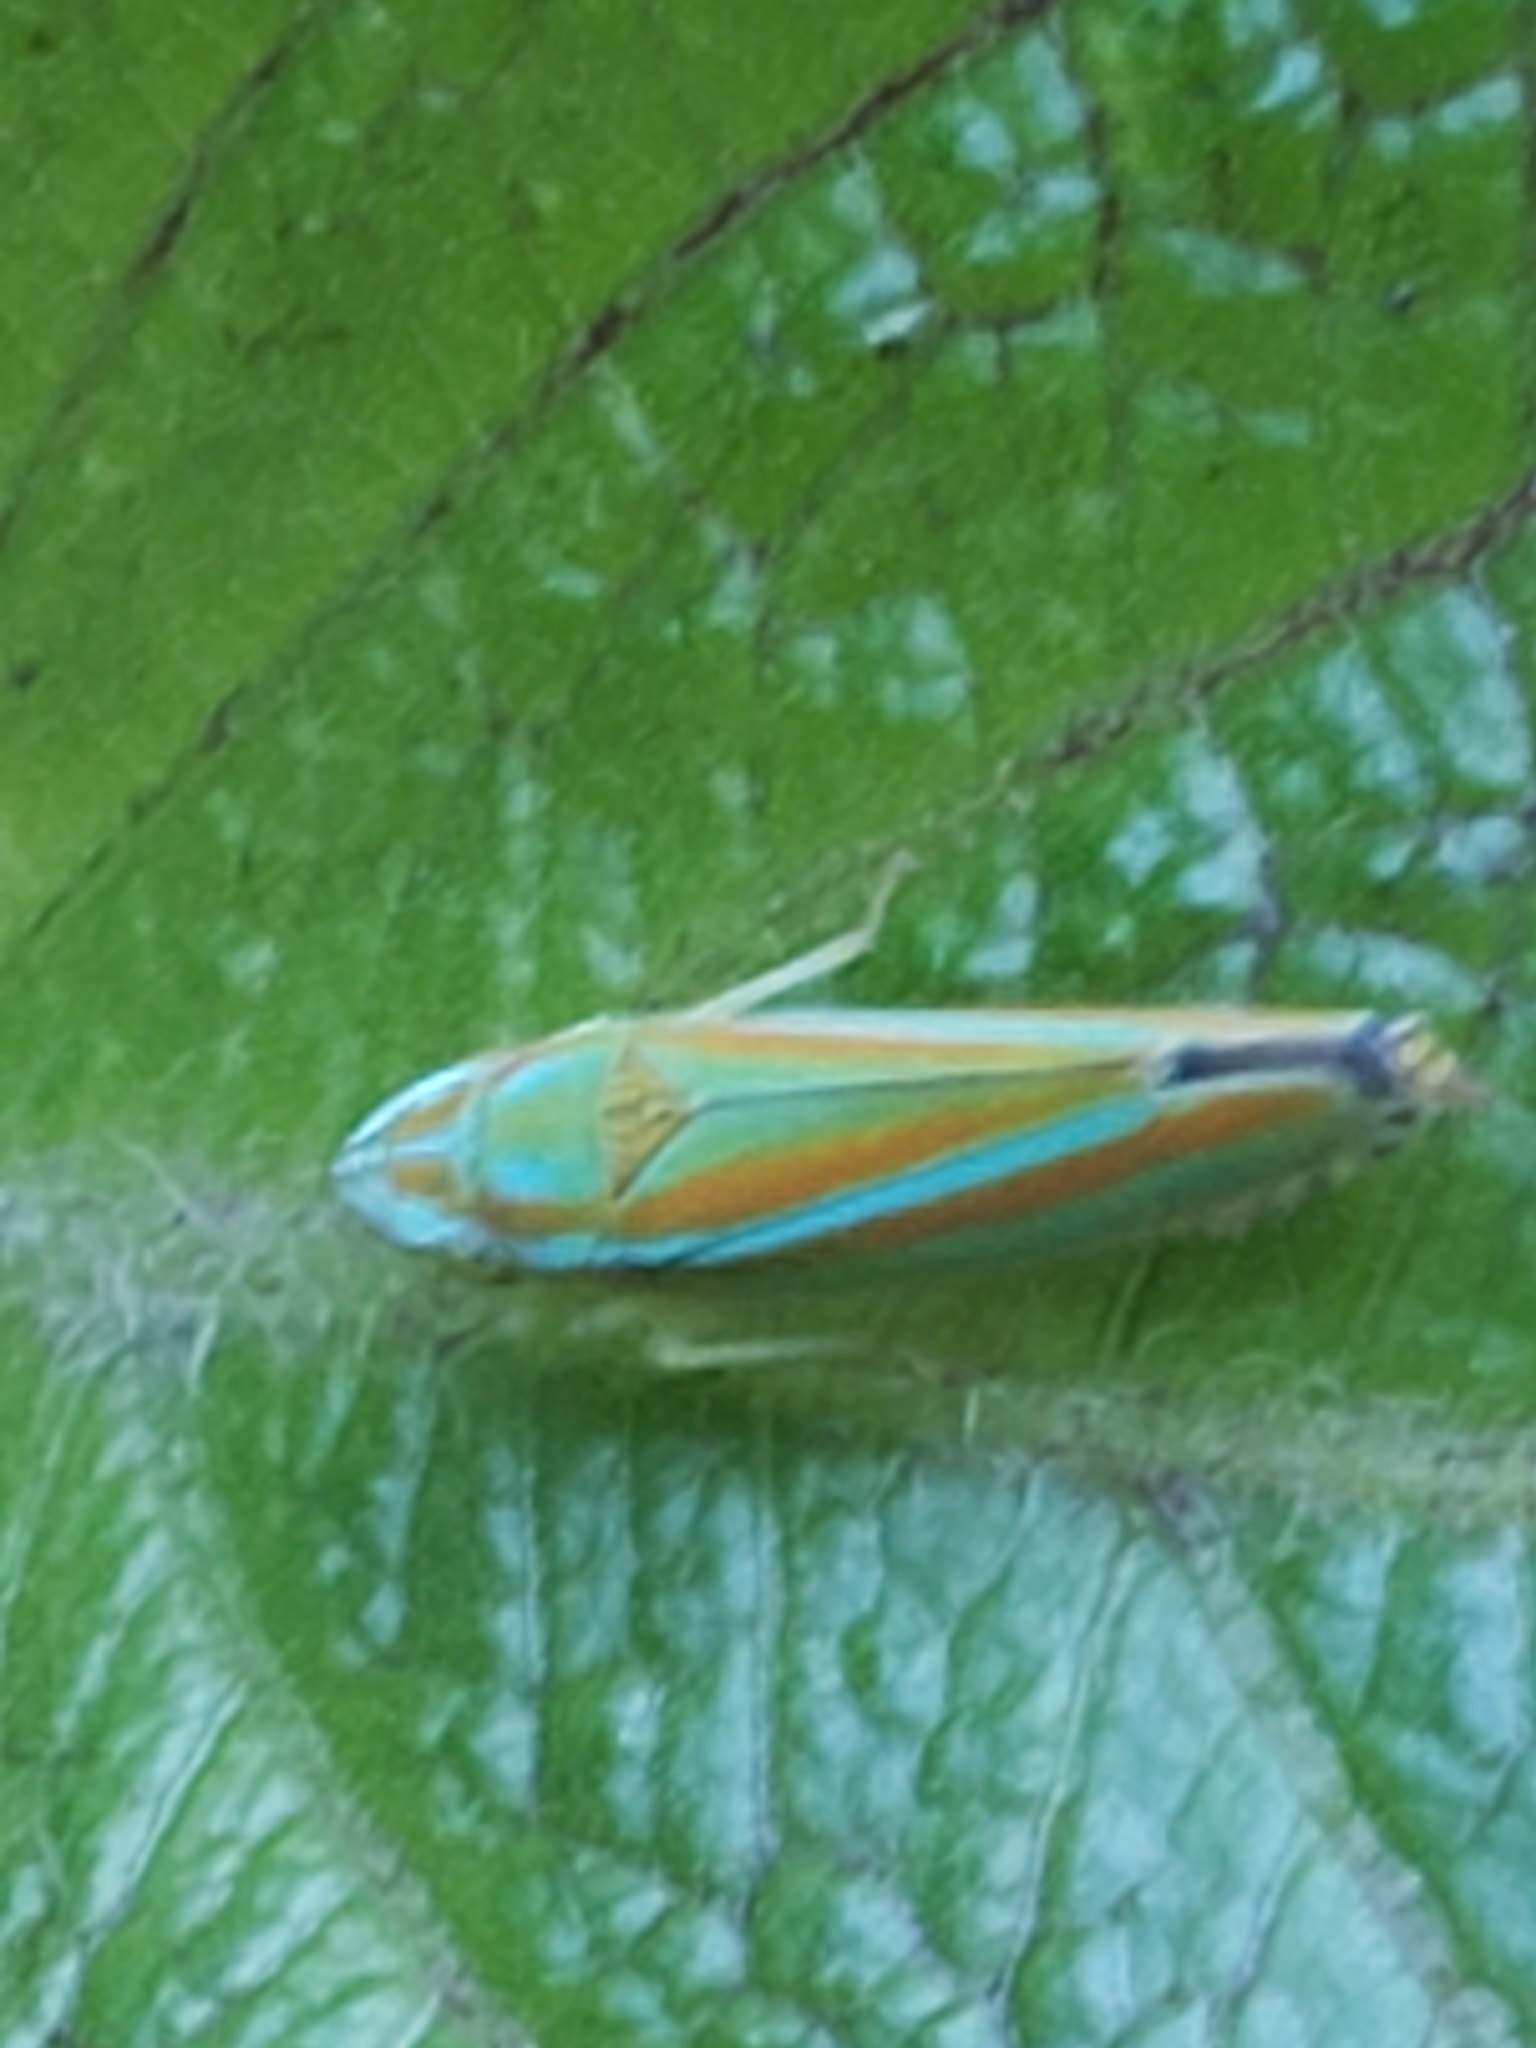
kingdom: Animalia
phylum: Arthropoda
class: Insecta
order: Hemiptera
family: Cicadellidae
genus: Graphocephala
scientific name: Graphocephala versuta
